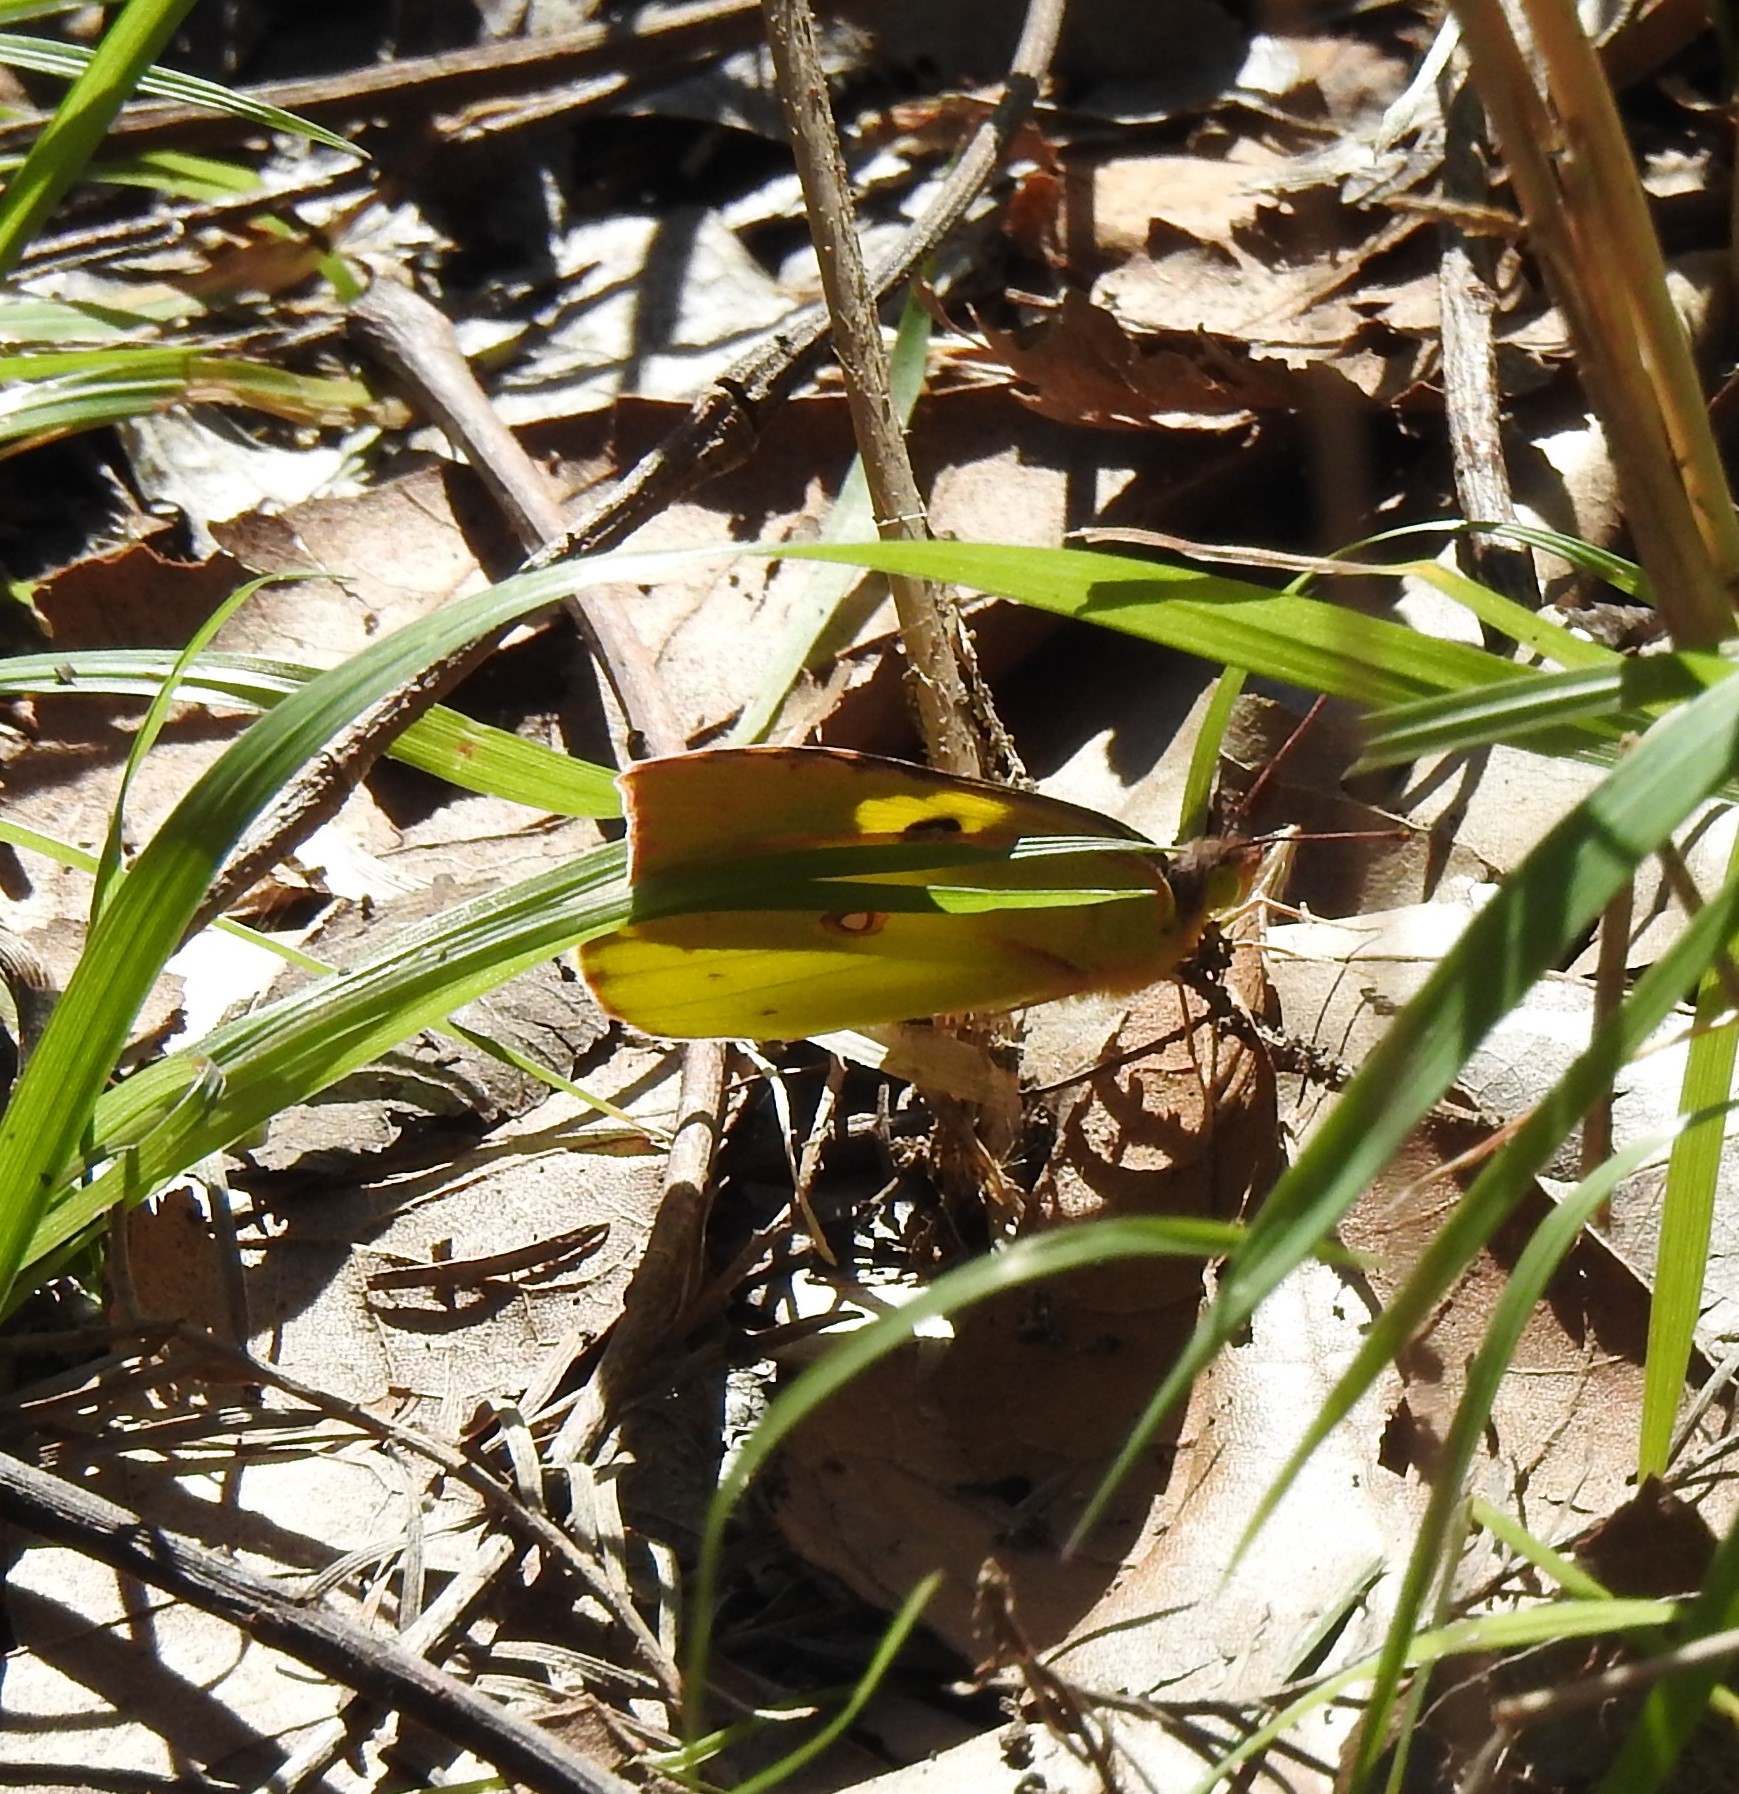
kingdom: Animalia
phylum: Arthropoda
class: Insecta
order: Lepidoptera
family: Pieridae
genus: Zerene
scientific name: Zerene cesonia
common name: Southern dogface
